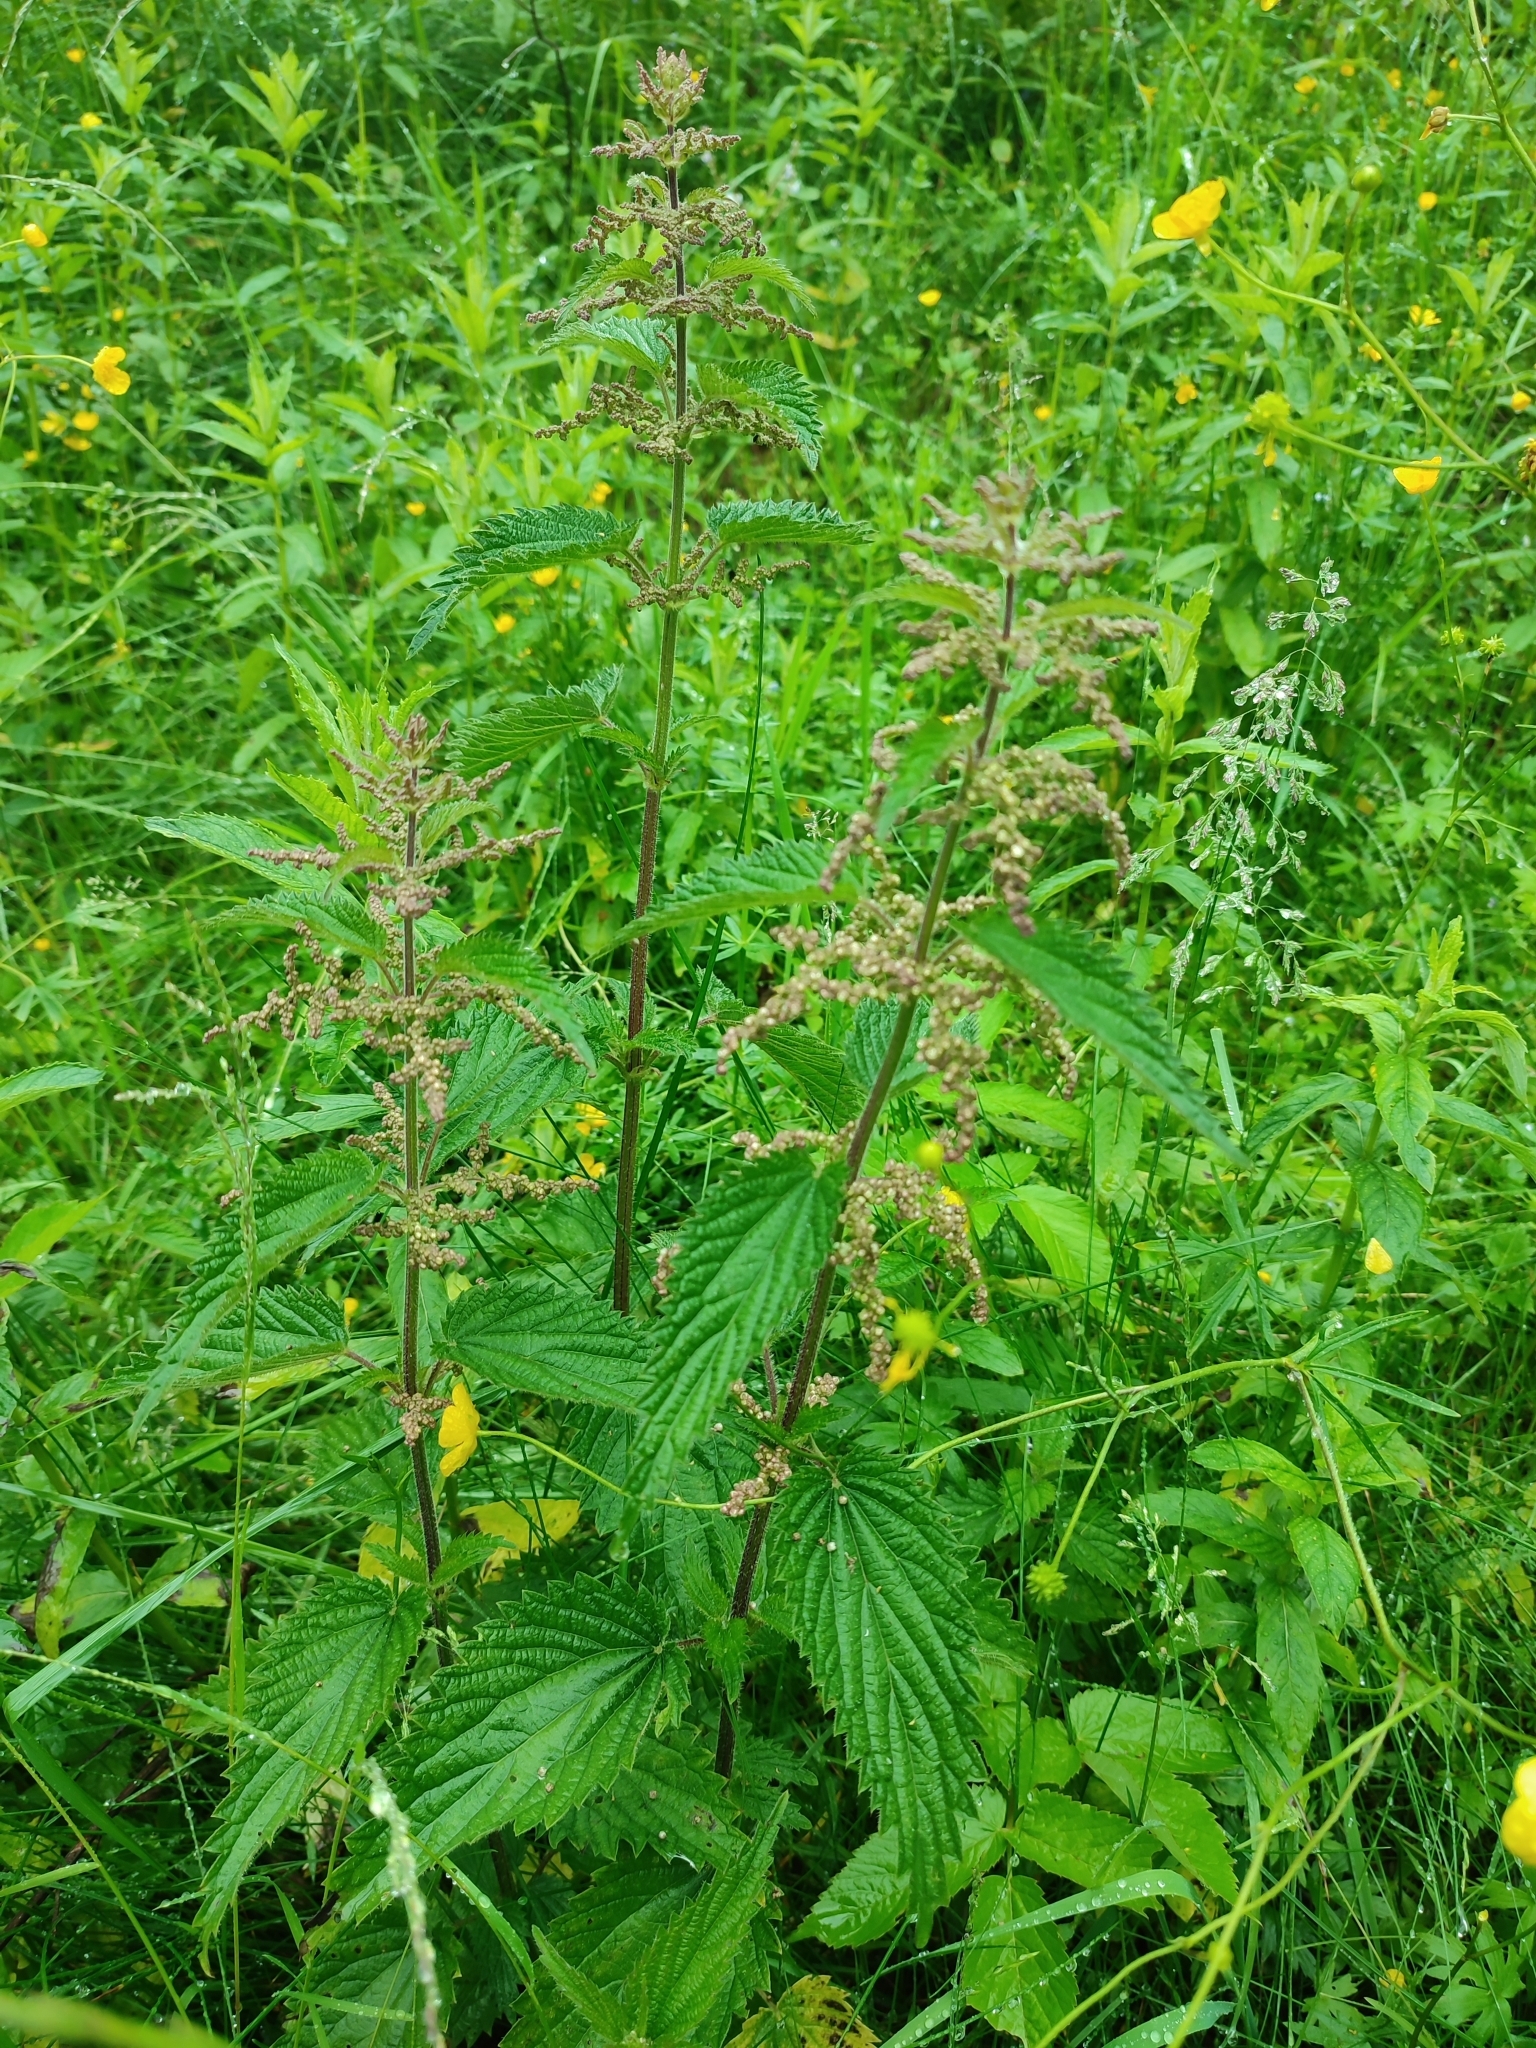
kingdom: Plantae
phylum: Tracheophyta
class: Magnoliopsida
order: Rosales
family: Urticaceae
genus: Urtica
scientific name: Urtica dioica
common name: Common nettle
